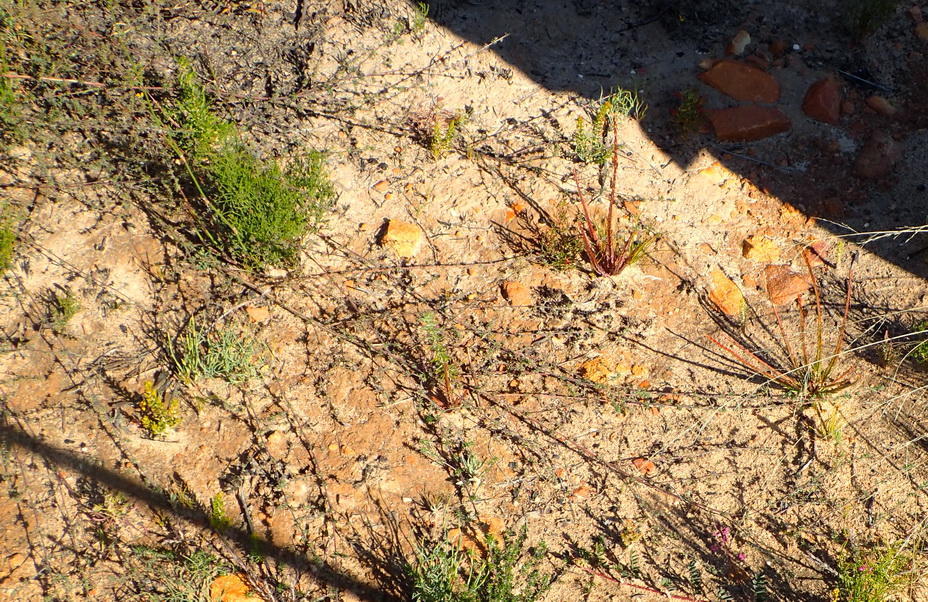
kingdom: Plantae
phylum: Tracheophyta
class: Magnoliopsida
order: Fabales
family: Fabaceae
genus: Indigofera
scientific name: Indigofera declinata
